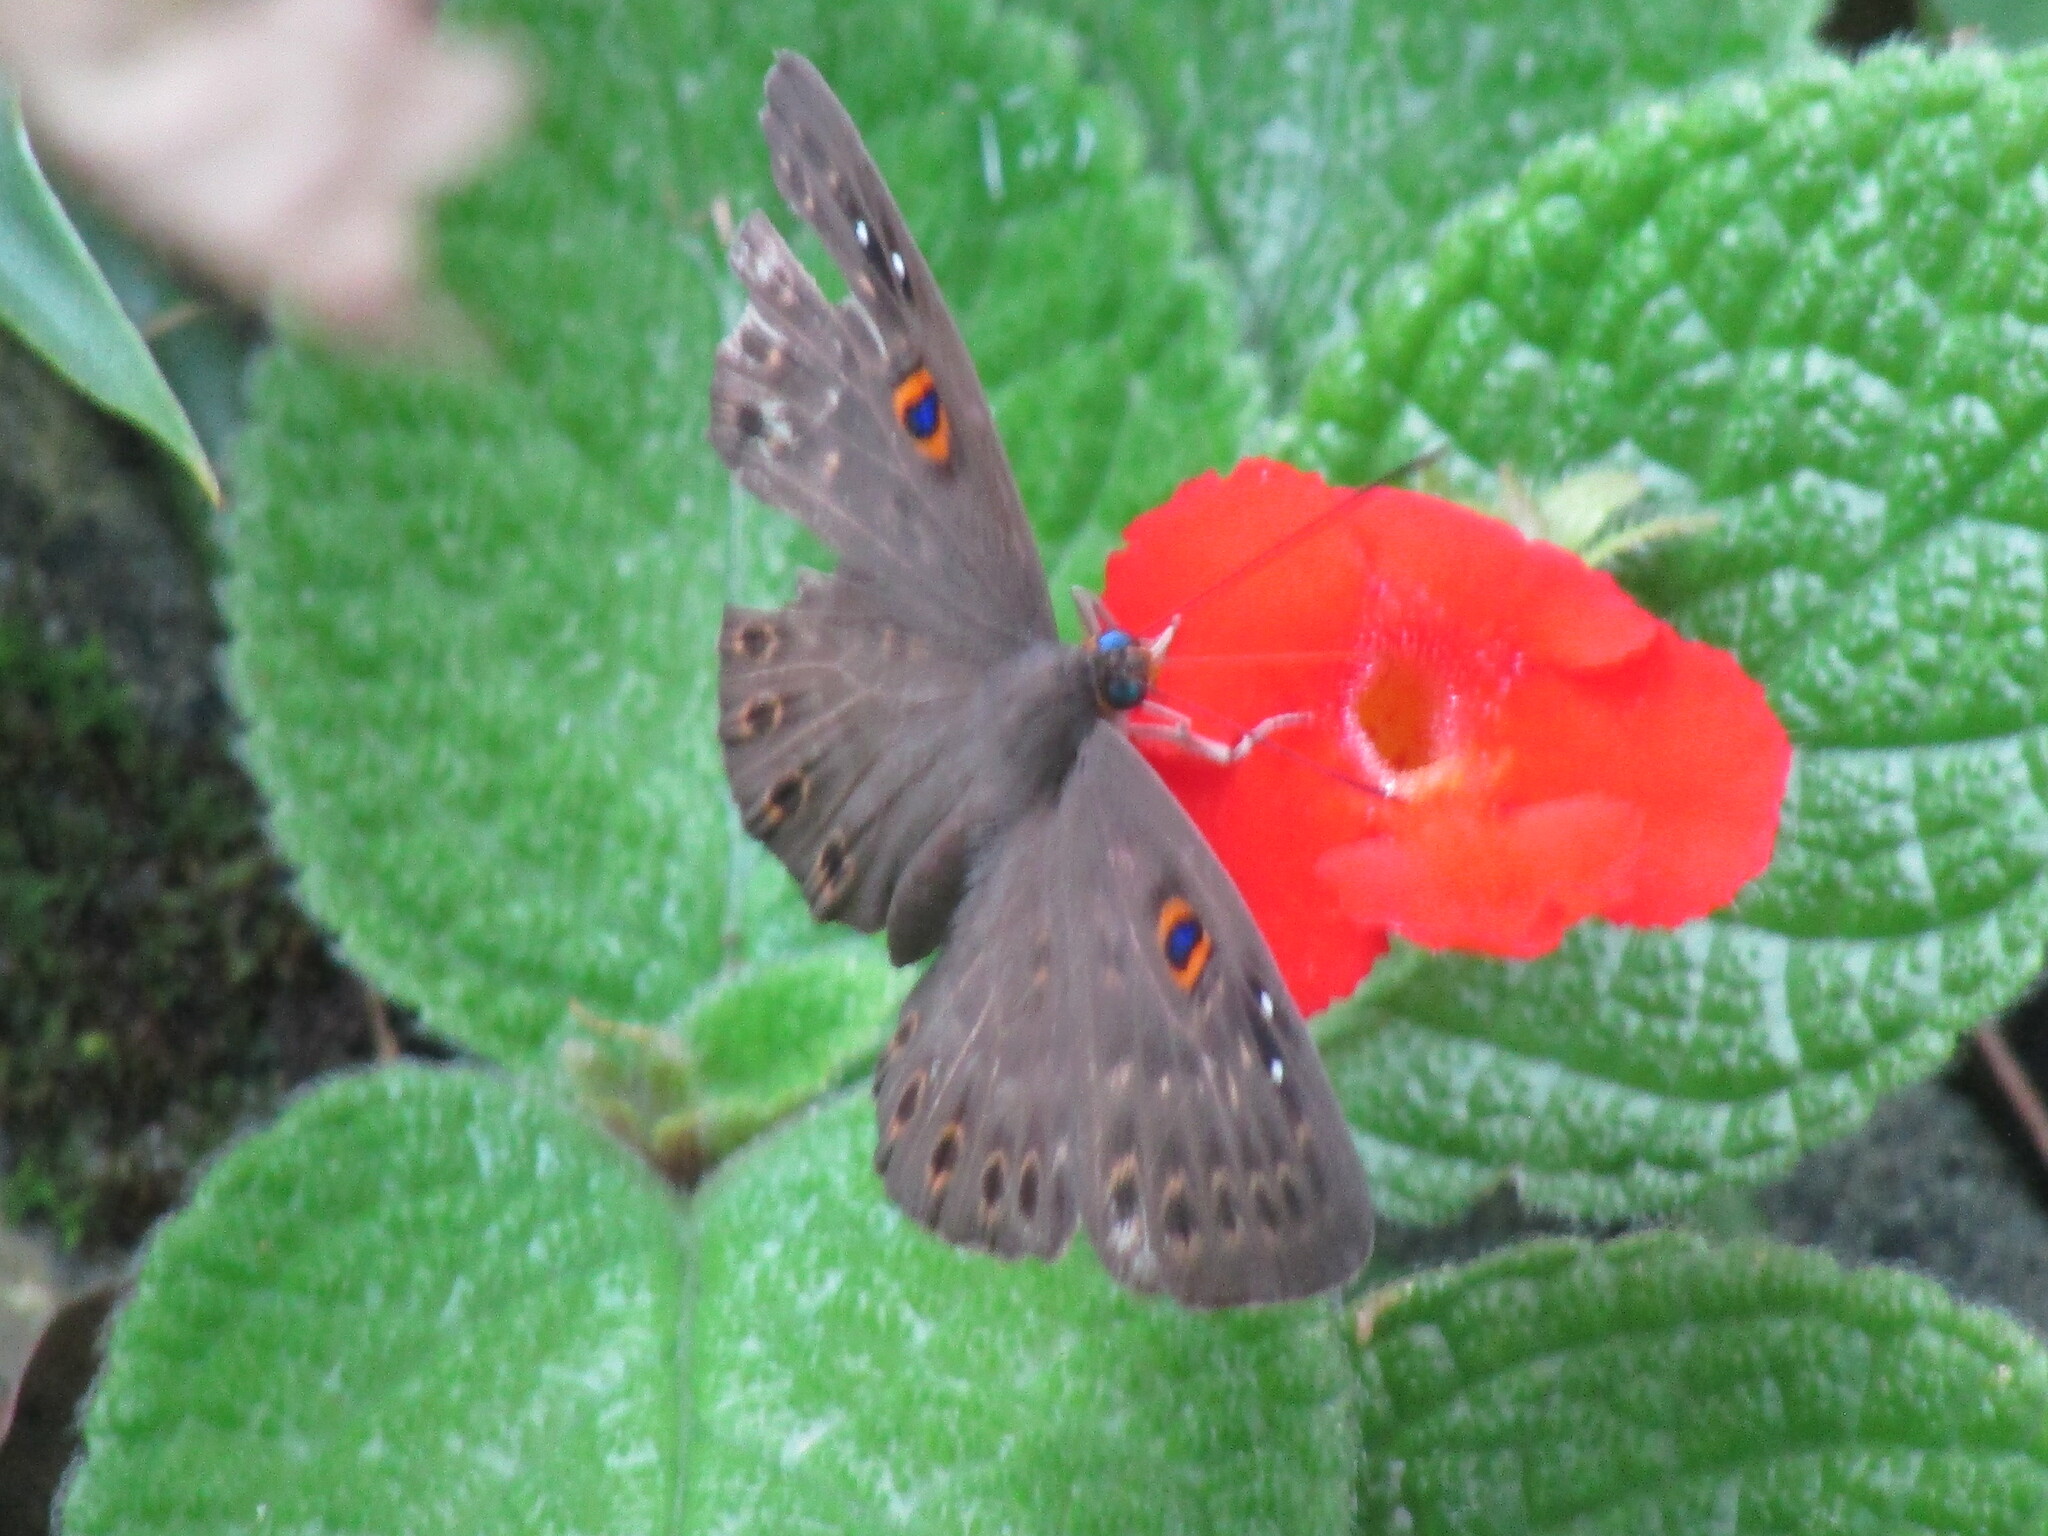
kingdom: Animalia
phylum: Cnidaria
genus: Eurybia
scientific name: Eurybia dardus
